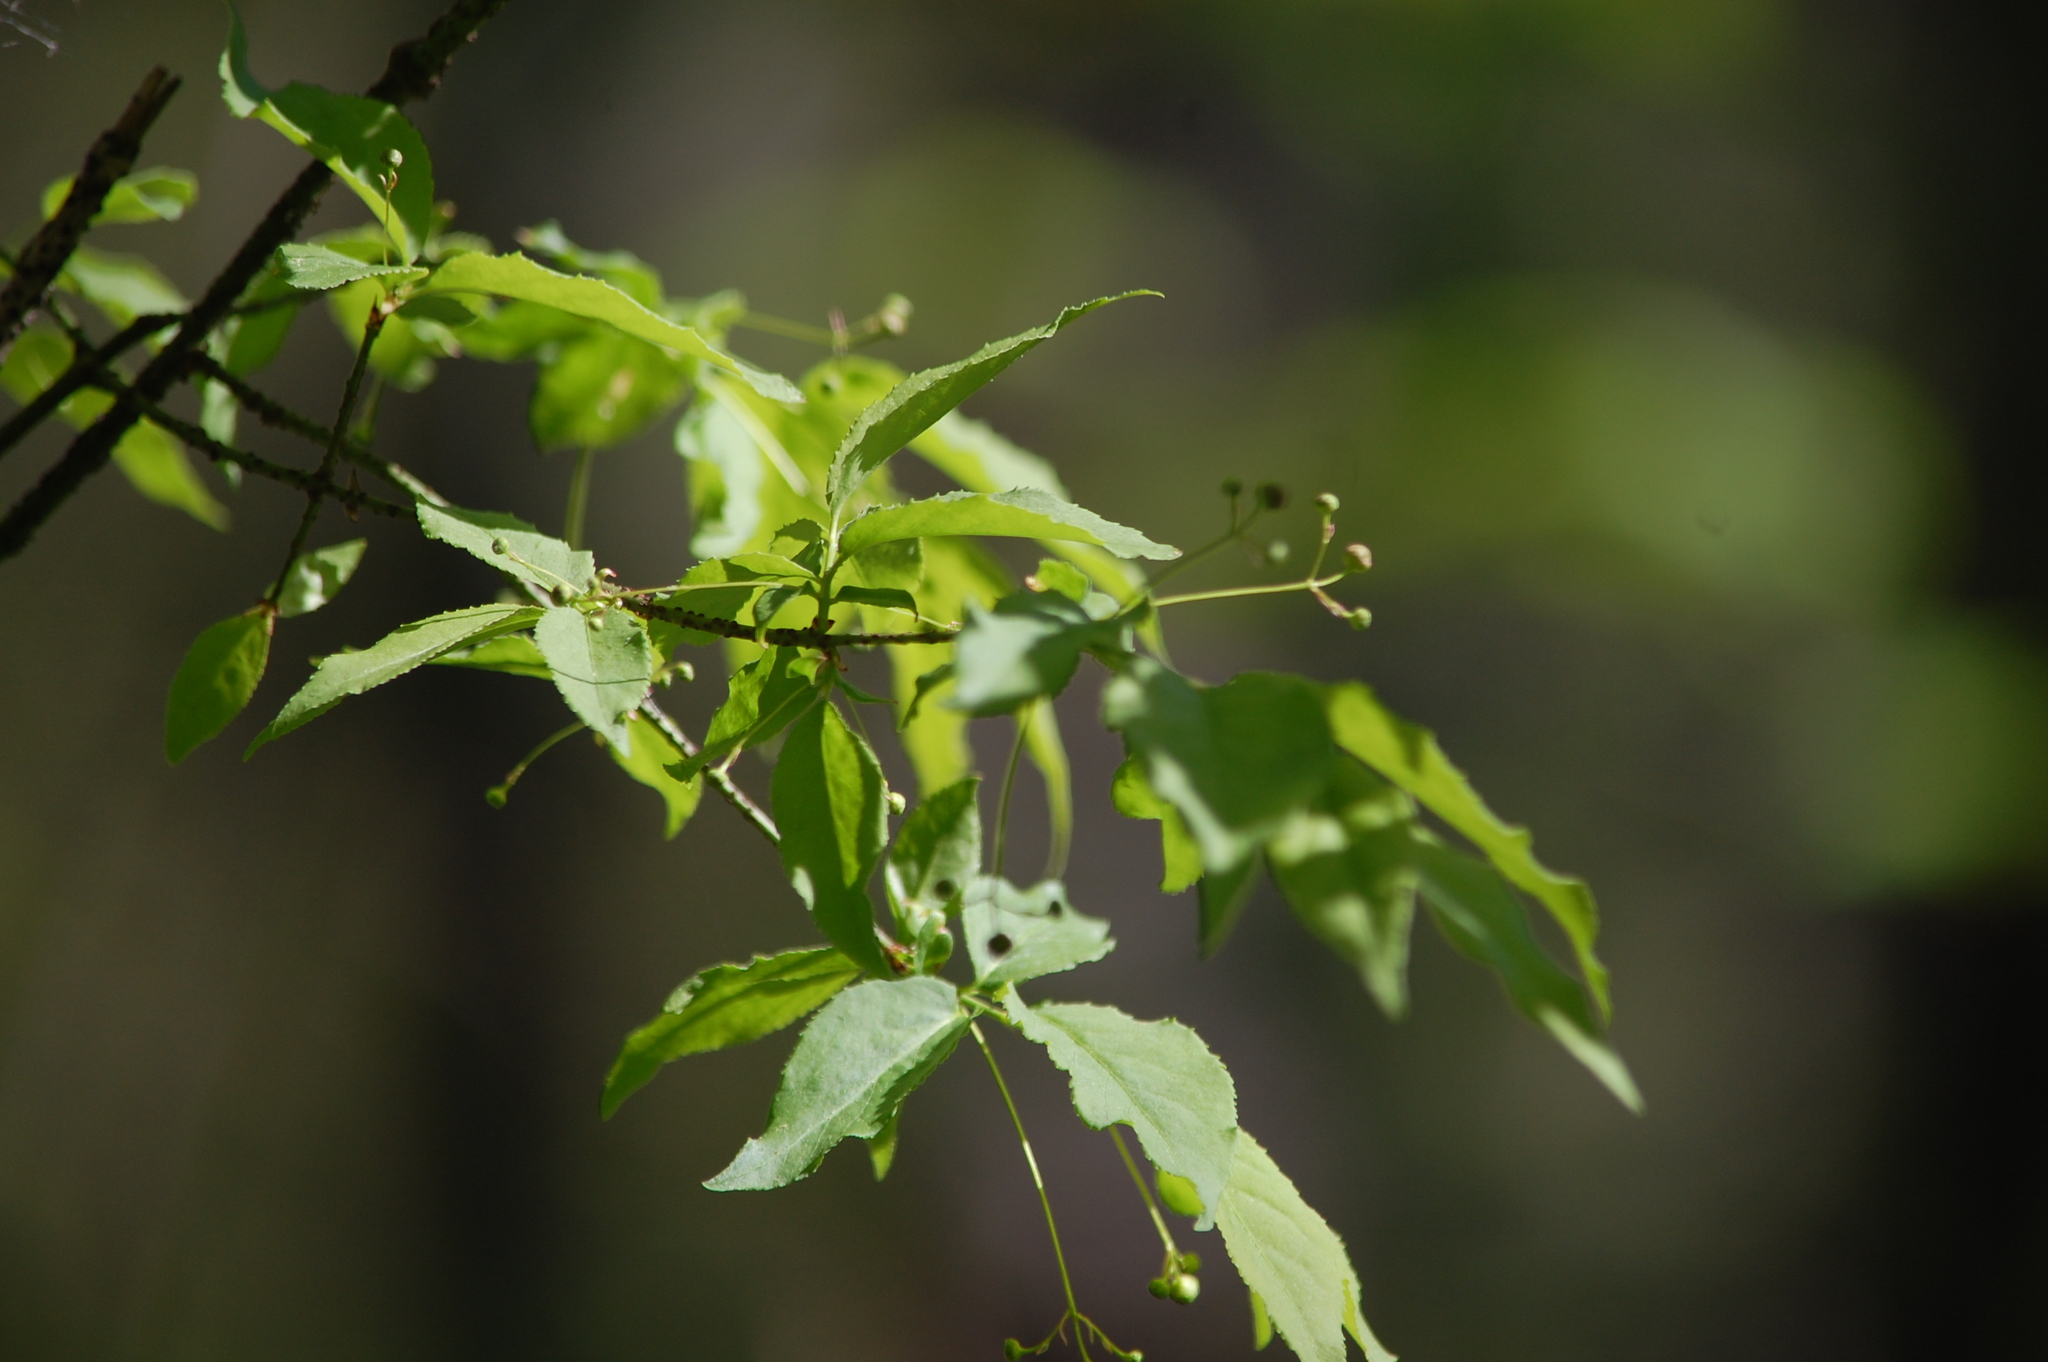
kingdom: Plantae
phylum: Tracheophyta
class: Magnoliopsida
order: Celastrales
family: Celastraceae
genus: Euonymus
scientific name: Euonymus verrucosus
